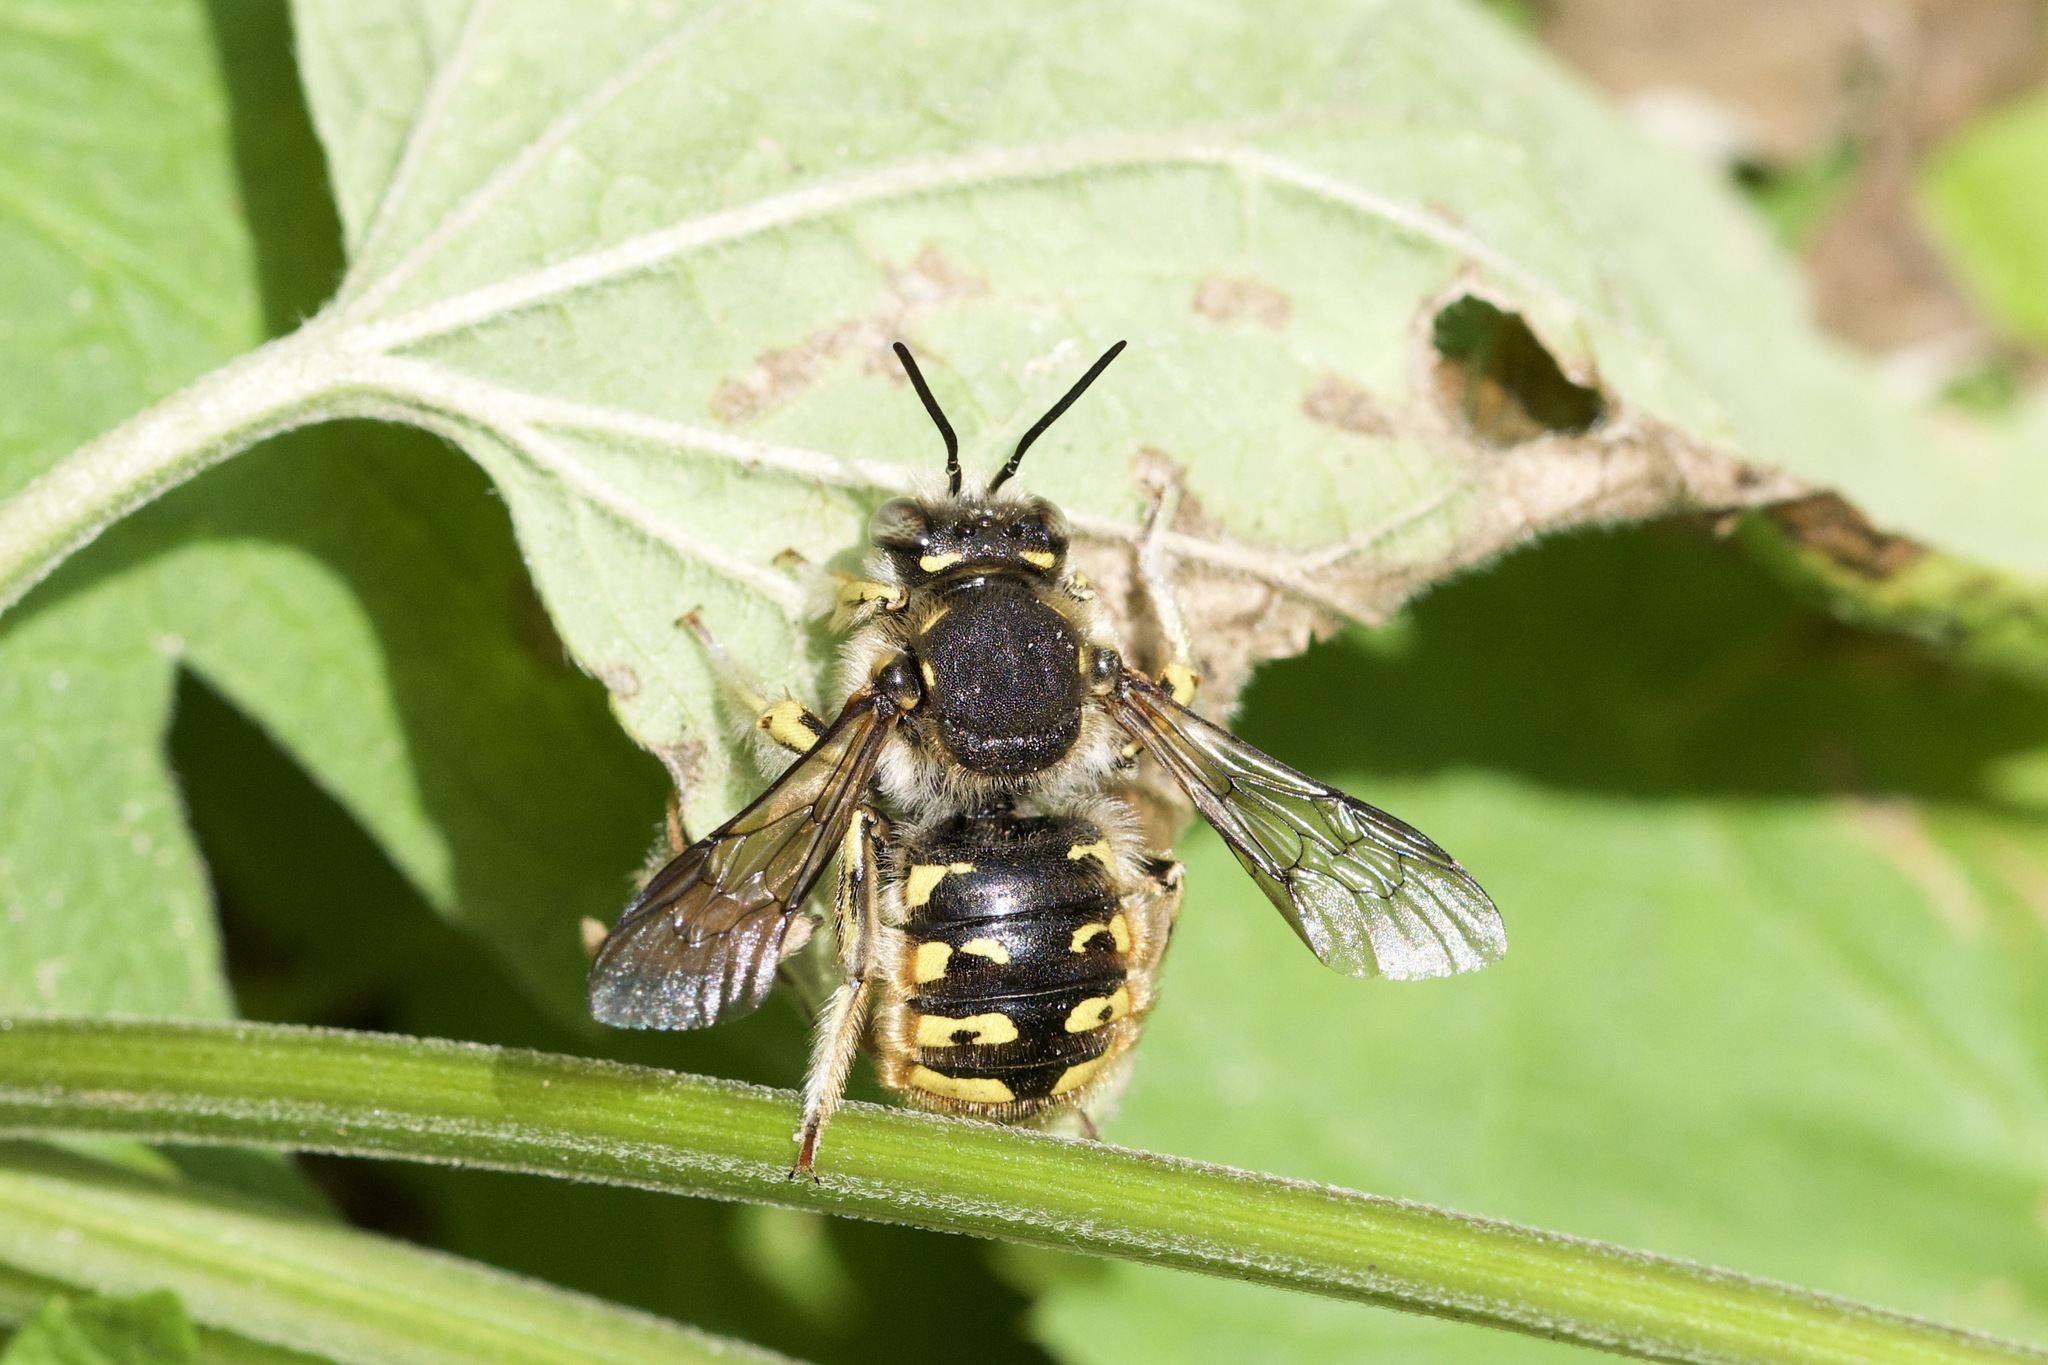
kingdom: Animalia
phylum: Arthropoda
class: Insecta
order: Hymenoptera
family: Megachilidae
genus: Anthidium
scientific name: Anthidium manicatum
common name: Wool carder bee
